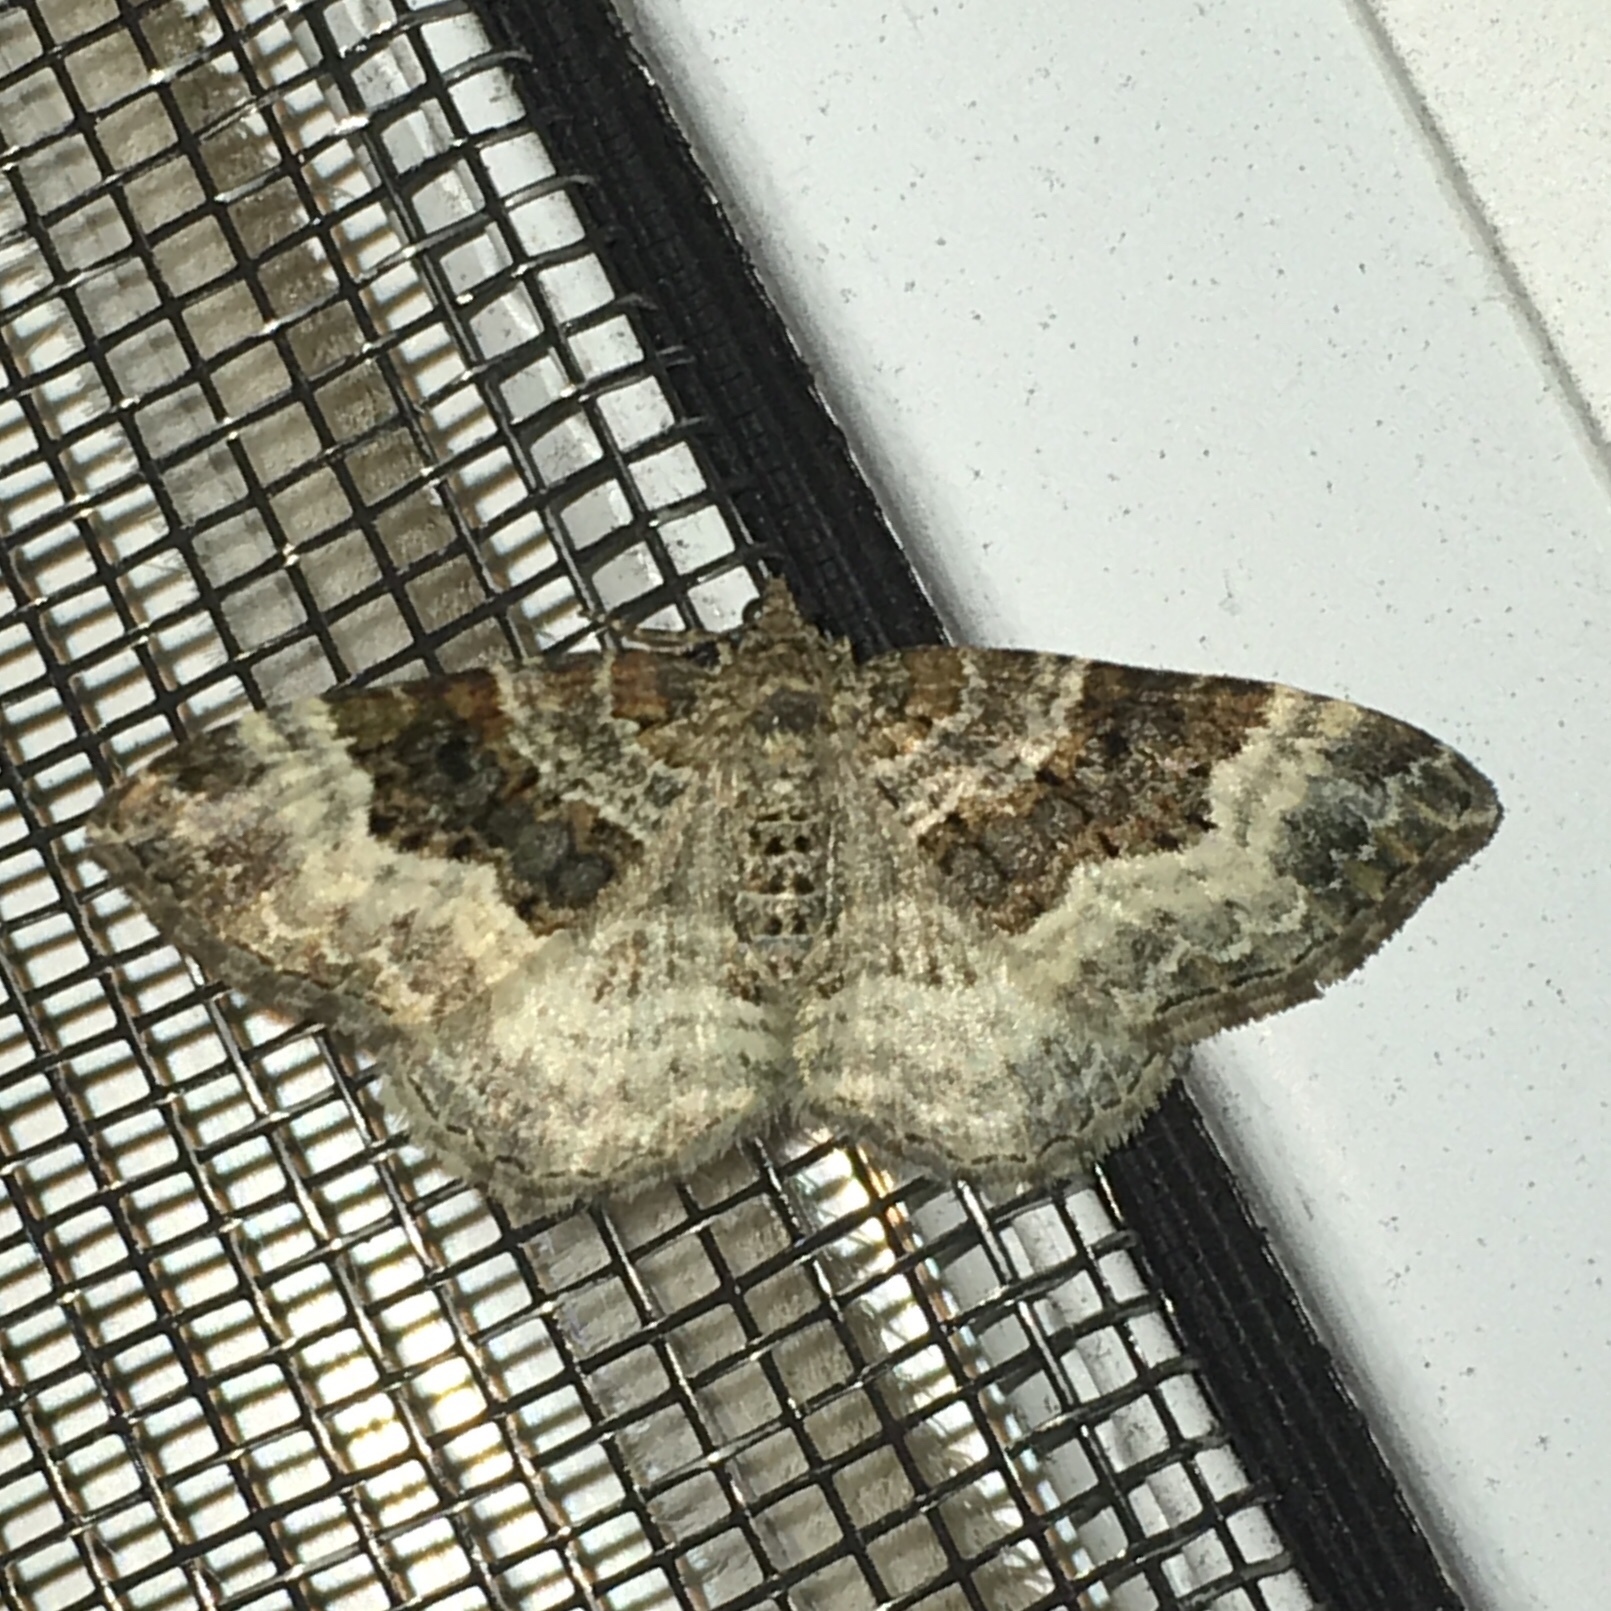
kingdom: Animalia
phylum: Arthropoda
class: Insecta
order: Lepidoptera
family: Geometridae
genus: Epirrhoe
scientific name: Epirrhoe alternata
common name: Common carpet
